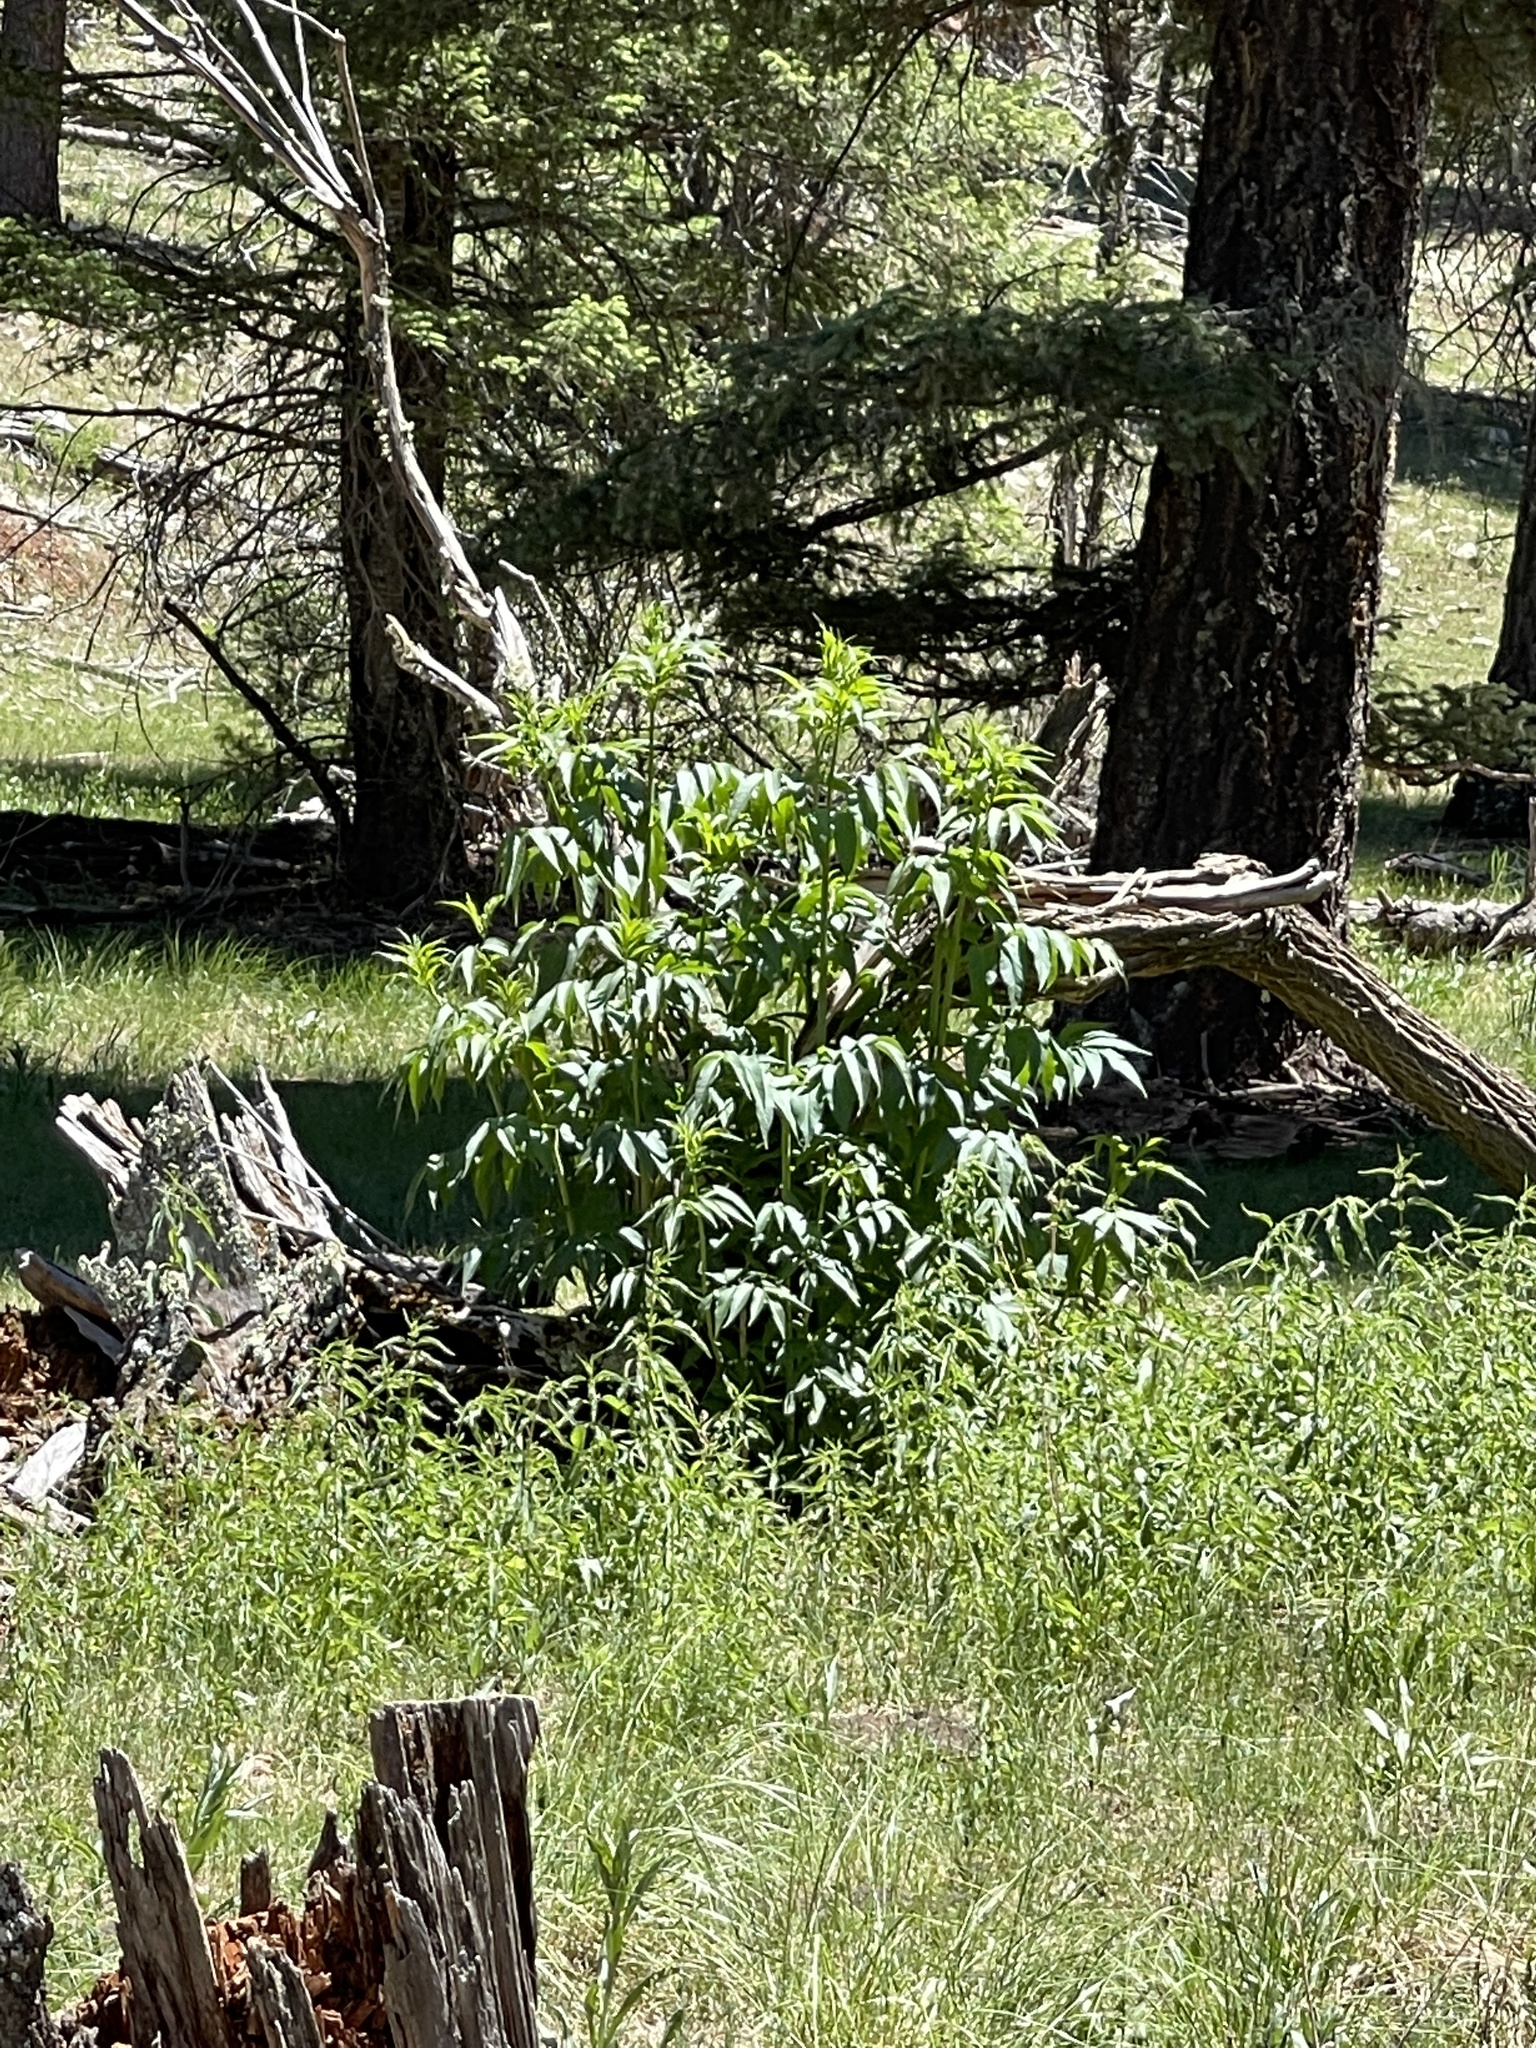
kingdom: Plantae
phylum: Tracheophyta
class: Magnoliopsida
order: Dipsacales
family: Viburnaceae
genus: Sambucus
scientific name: Sambucus cerulea
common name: Blue elder
